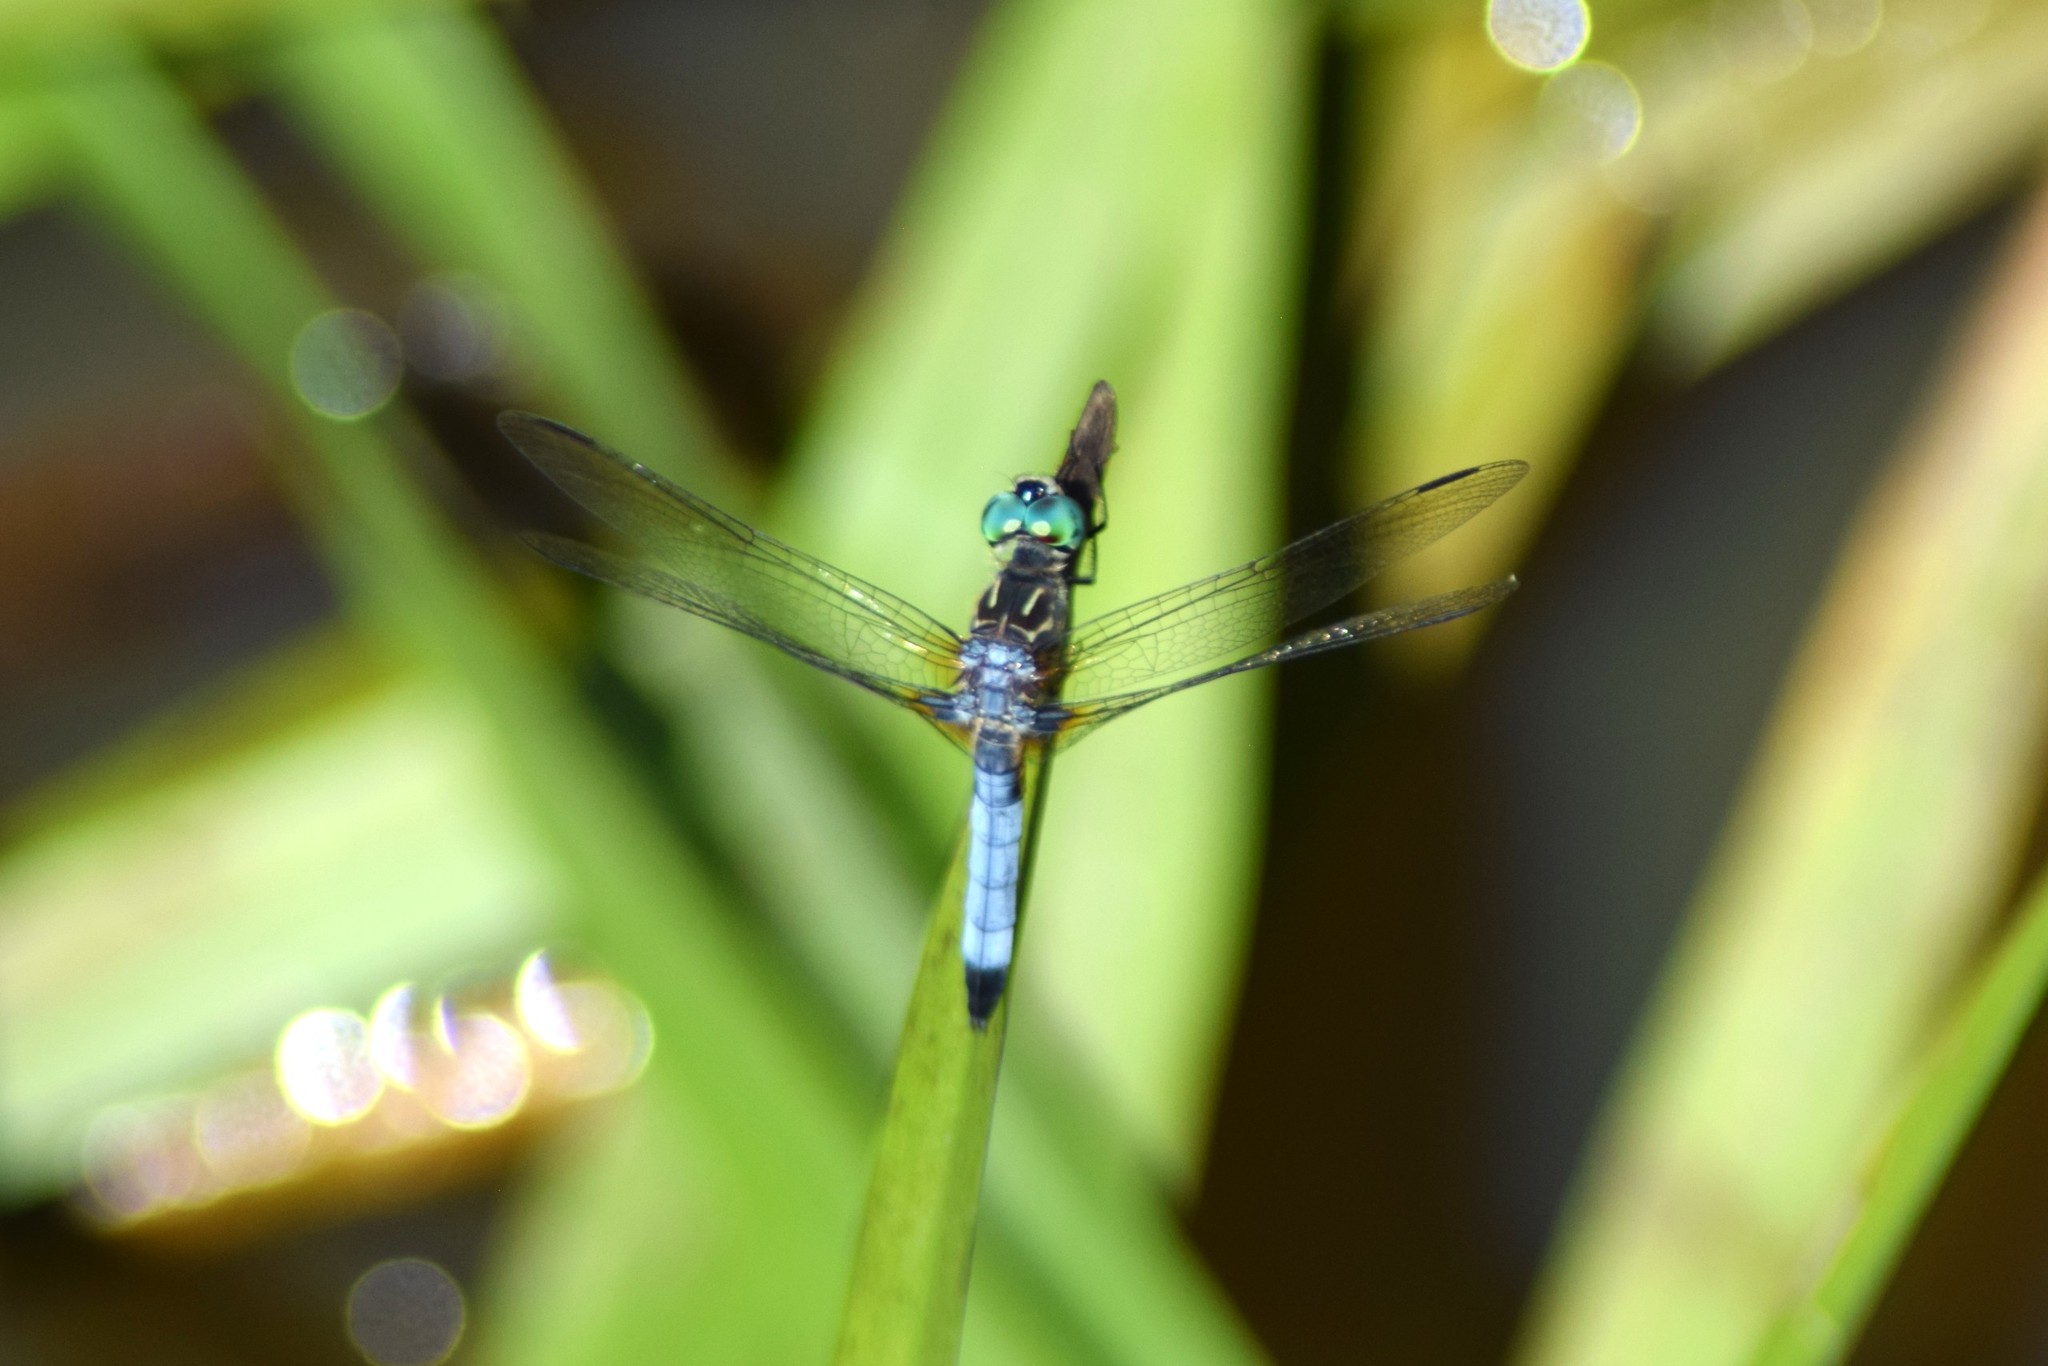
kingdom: Animalia
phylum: Arthropoda
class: Insecta
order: Odonata
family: Libellulidae
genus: Pachydiplax
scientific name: Pachydiplax longipennis
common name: Blue dasher
